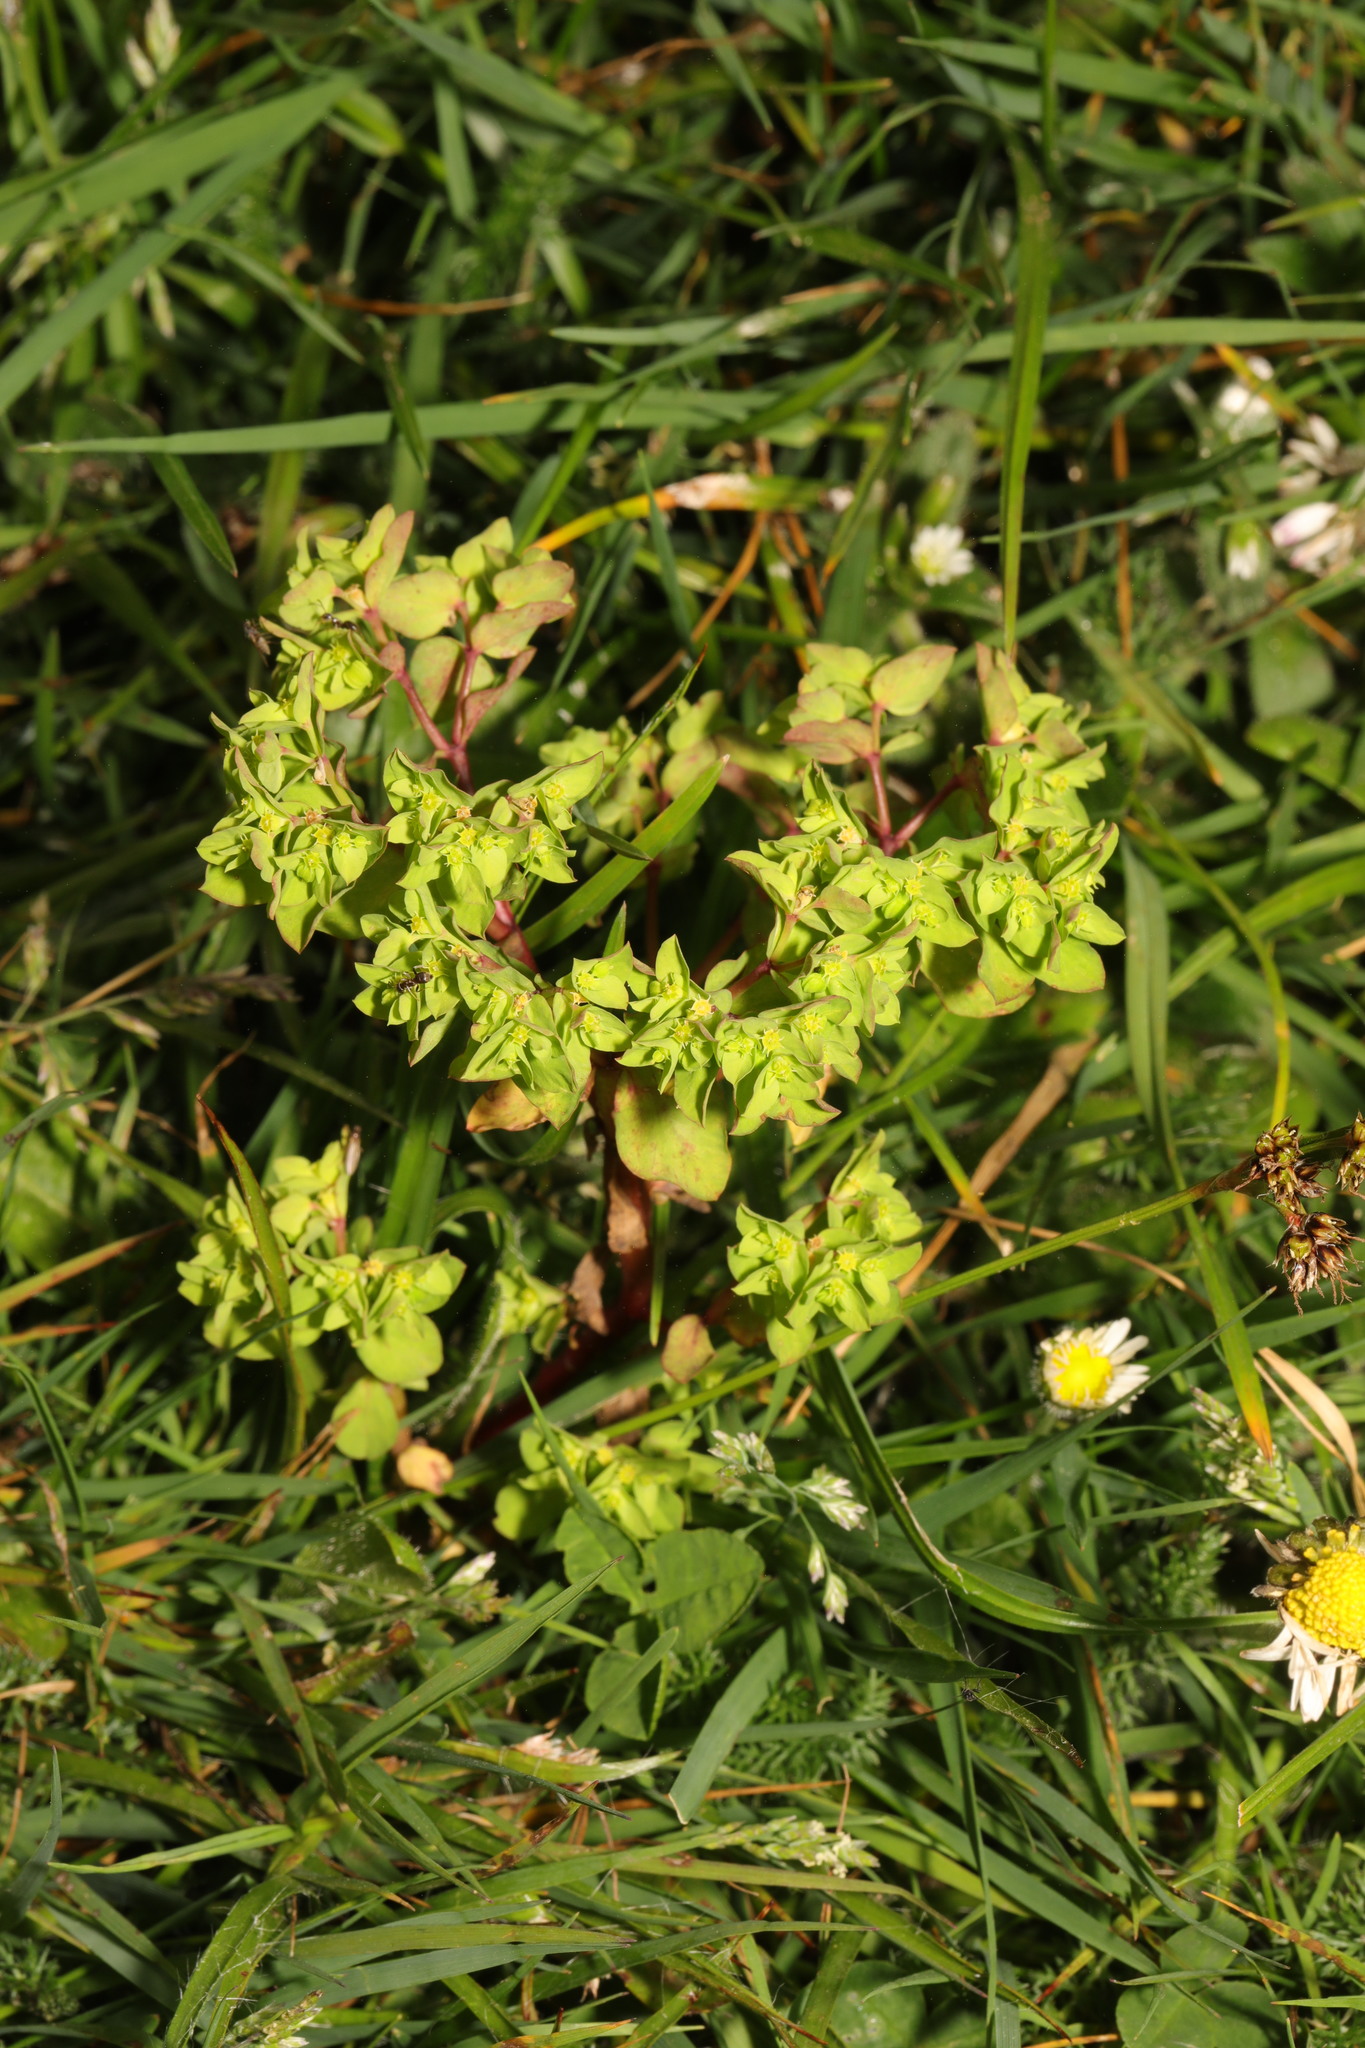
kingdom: Plantae
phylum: Tracheophyta
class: Magnoliopsida
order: Malpighiales
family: Euphorbiaceae
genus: Euphorbia
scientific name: Euphorbia peplus
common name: Petty spurge
